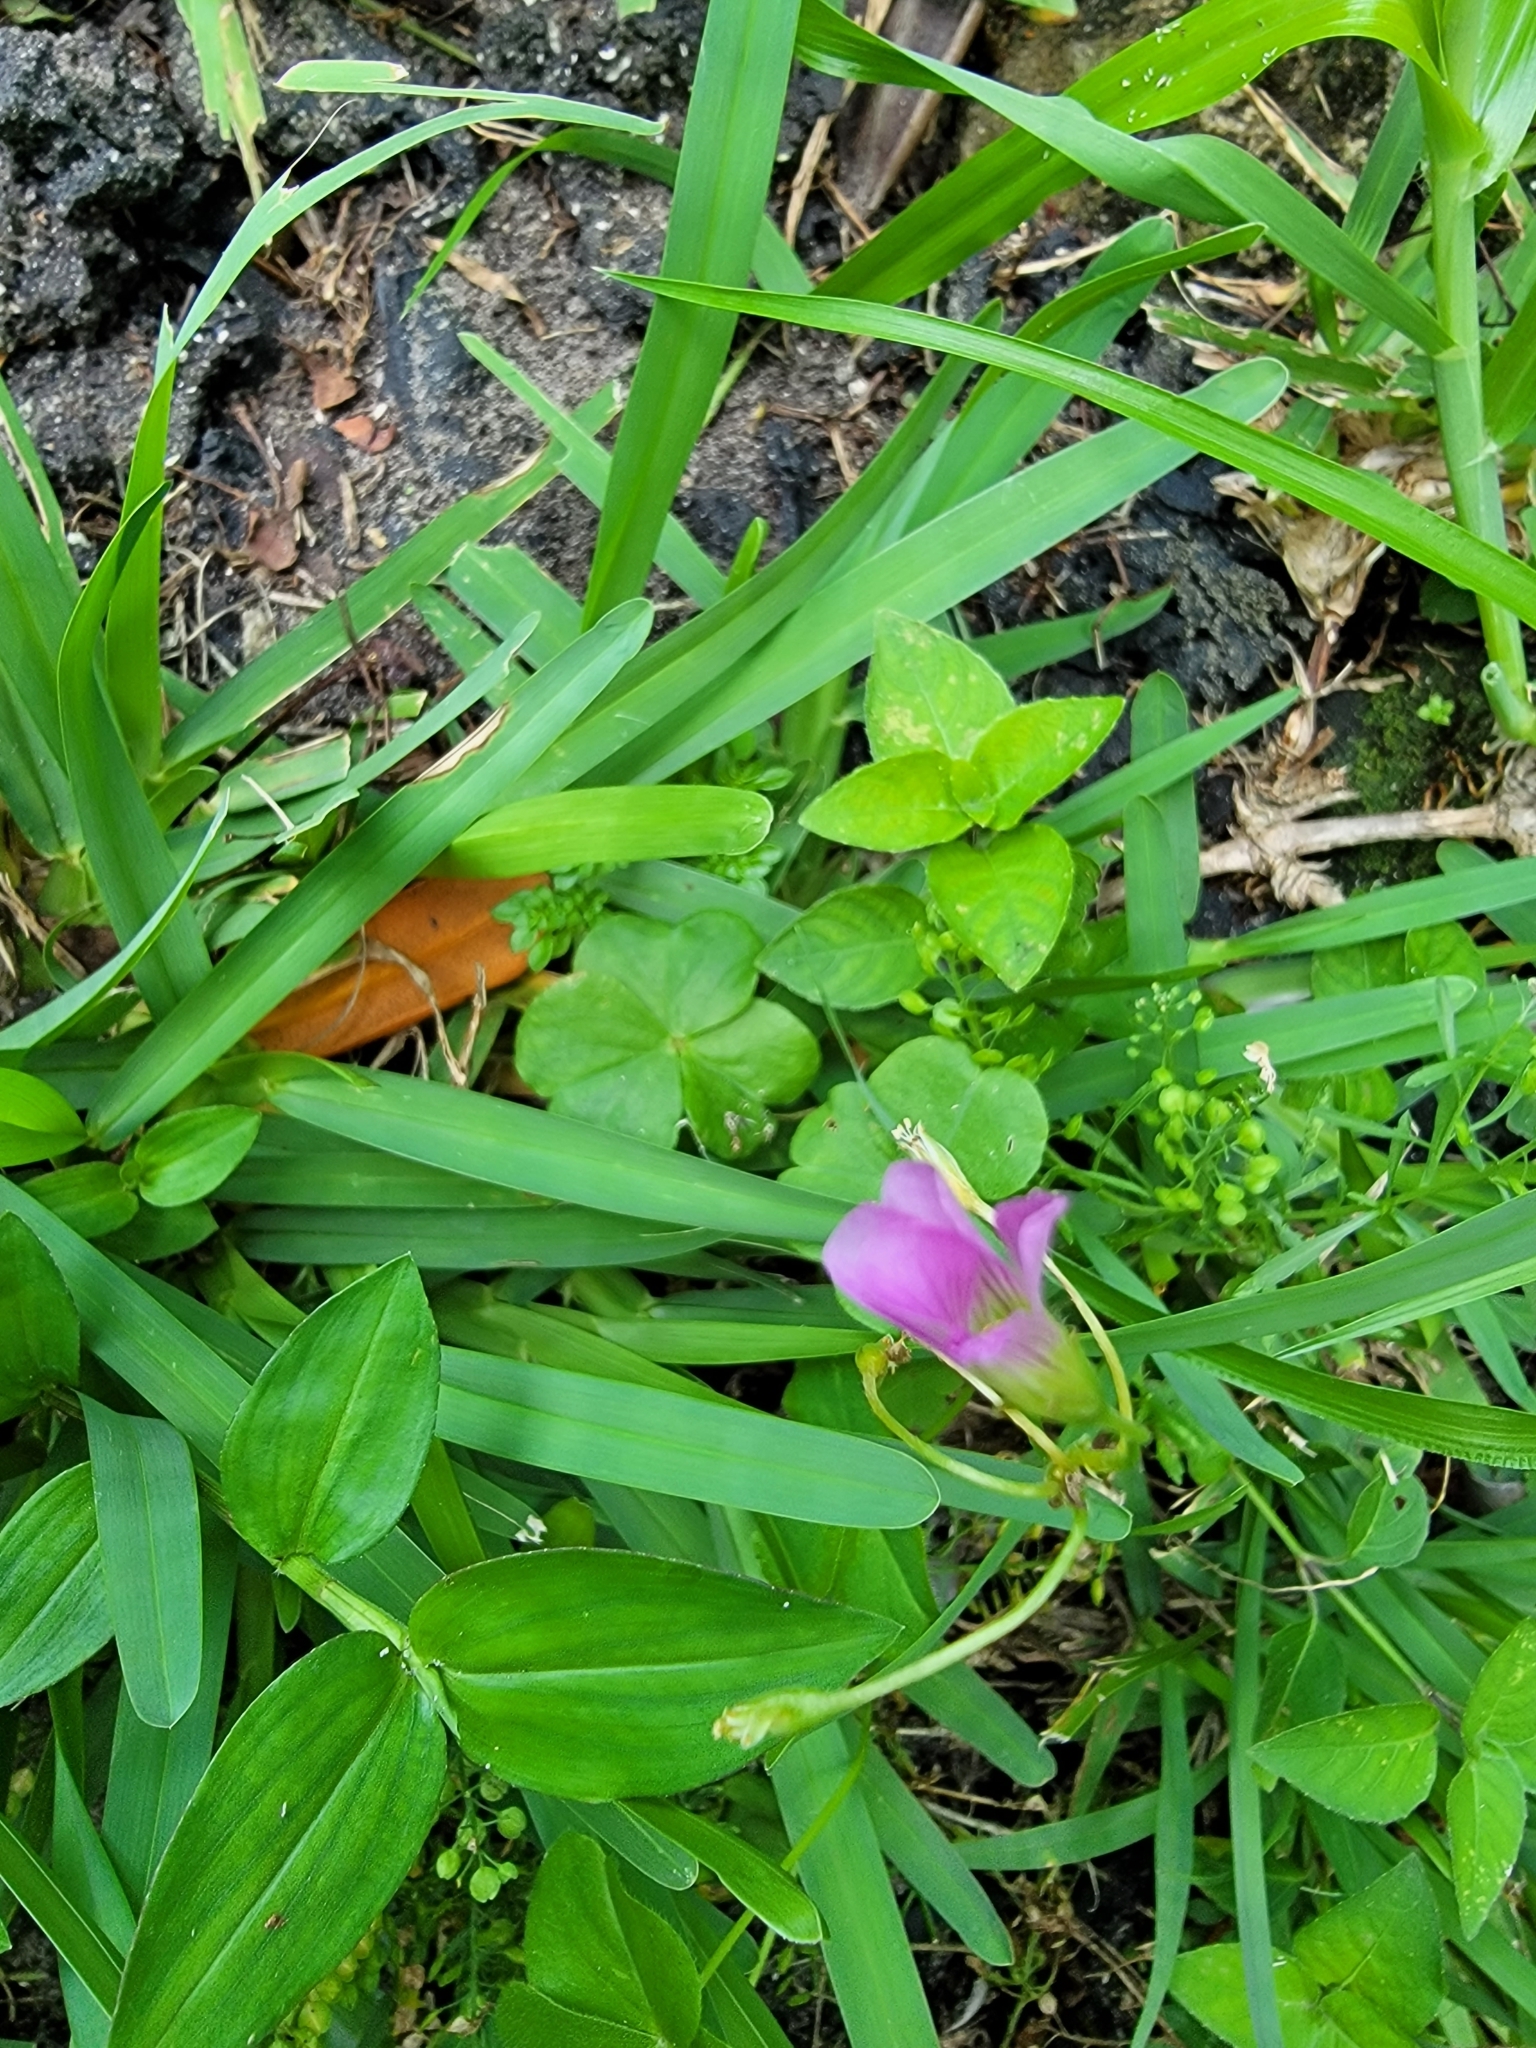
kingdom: Plantae
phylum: Tracheophyta
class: Magnoliopsida
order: Oxalidales
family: Oxalidaceae
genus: Oxalis
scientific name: Oxalis debilis
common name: Large-flowered pink-sorrel
